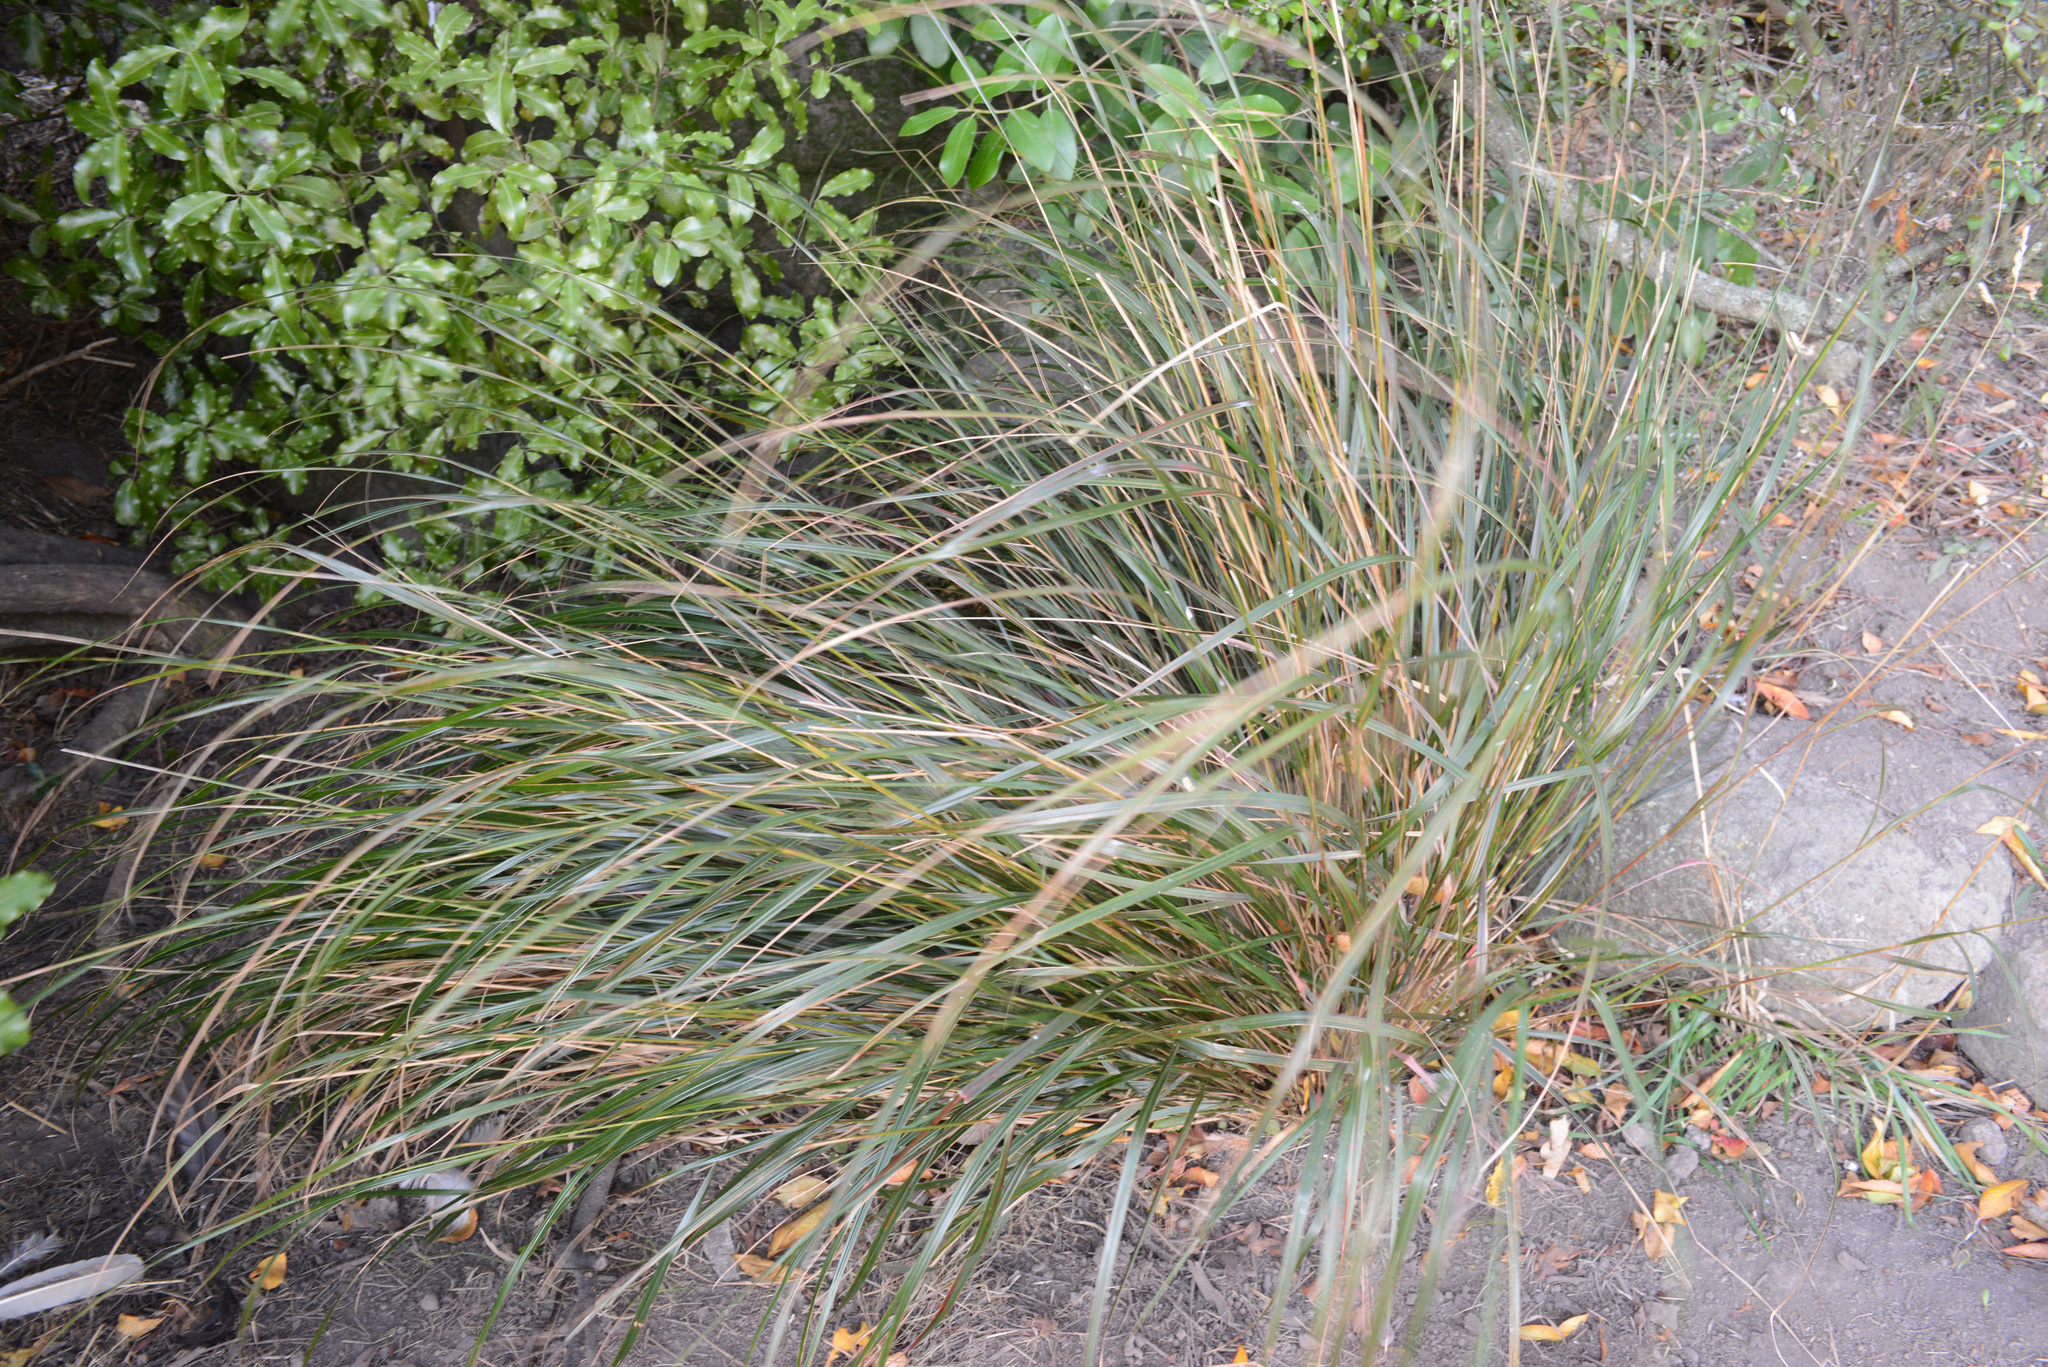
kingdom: Plantae
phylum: Tracheophyta
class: Liliopsida
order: Poales
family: Poaceae
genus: Anemanthele
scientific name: Anemanthele lessoniana
